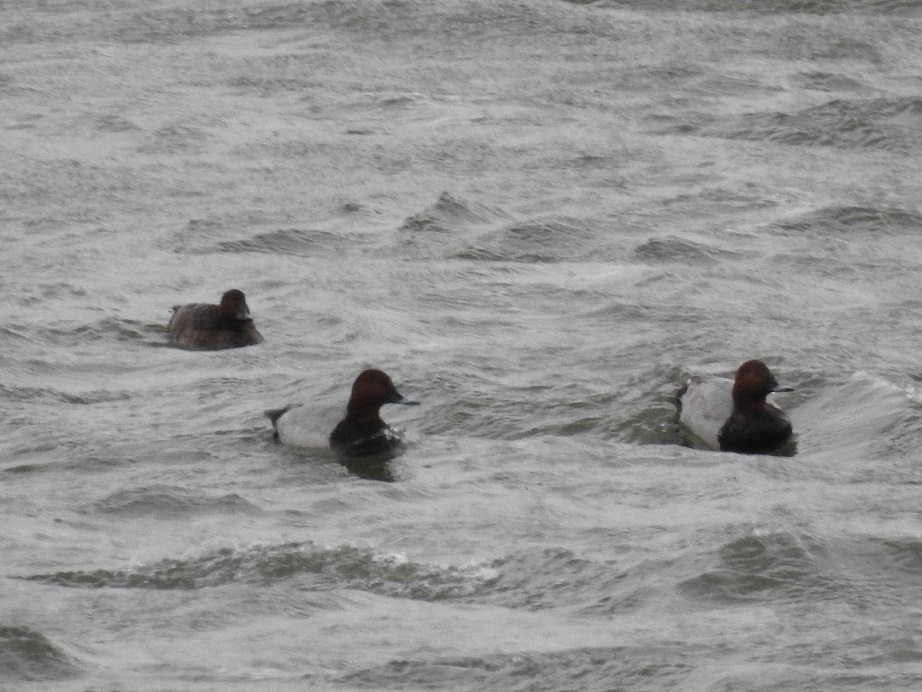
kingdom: Animalia
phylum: Chordata
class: Aves
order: Anseriformes
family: Anatidae
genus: Aythya
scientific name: Aythya ferina
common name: Common pochard
